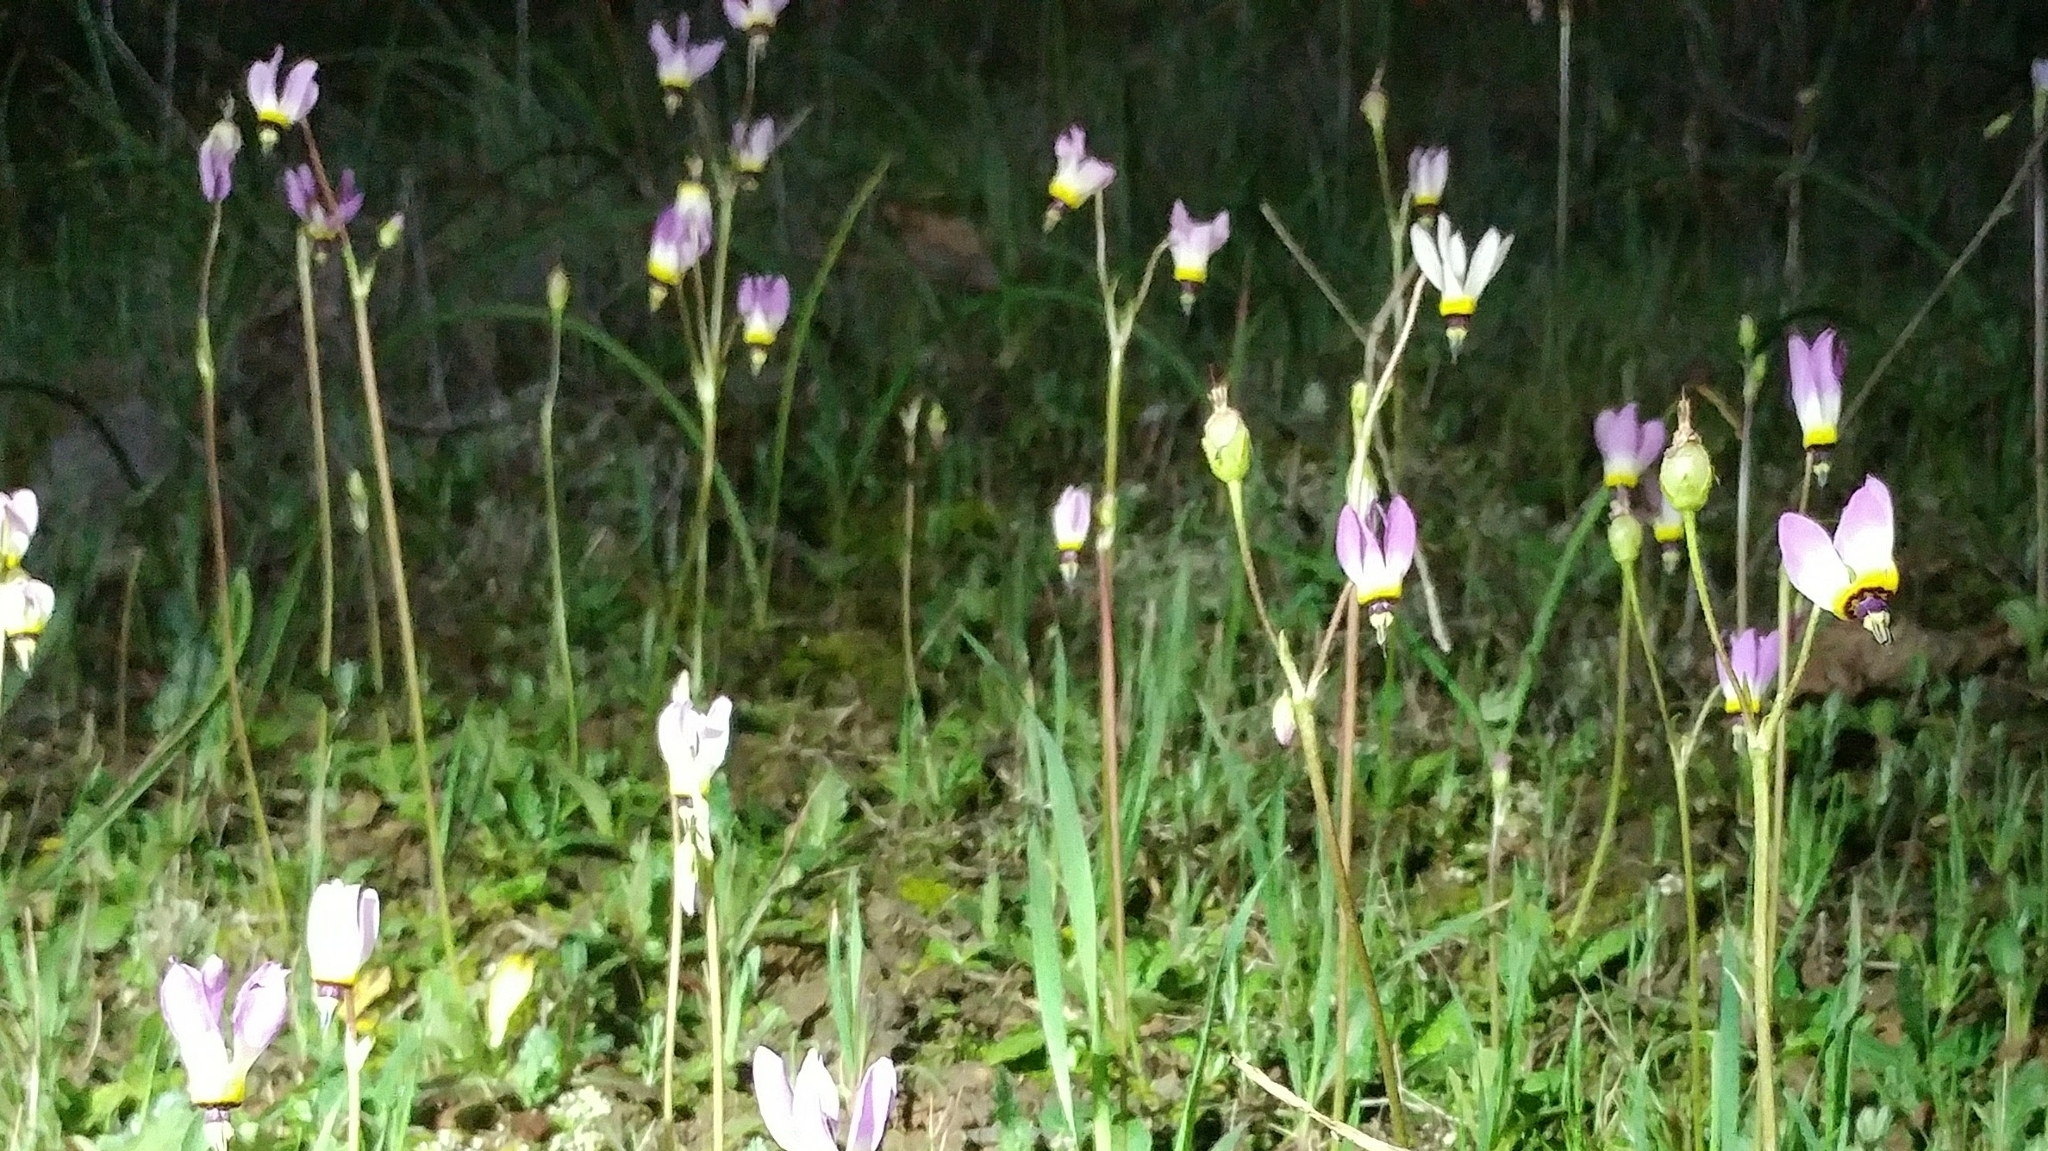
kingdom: Plantae
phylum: Tracheophyta
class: Magnoliopsida
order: Ericales
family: Primulaceae
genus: Dodecatheon
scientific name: Dodecatheon clevelandii
